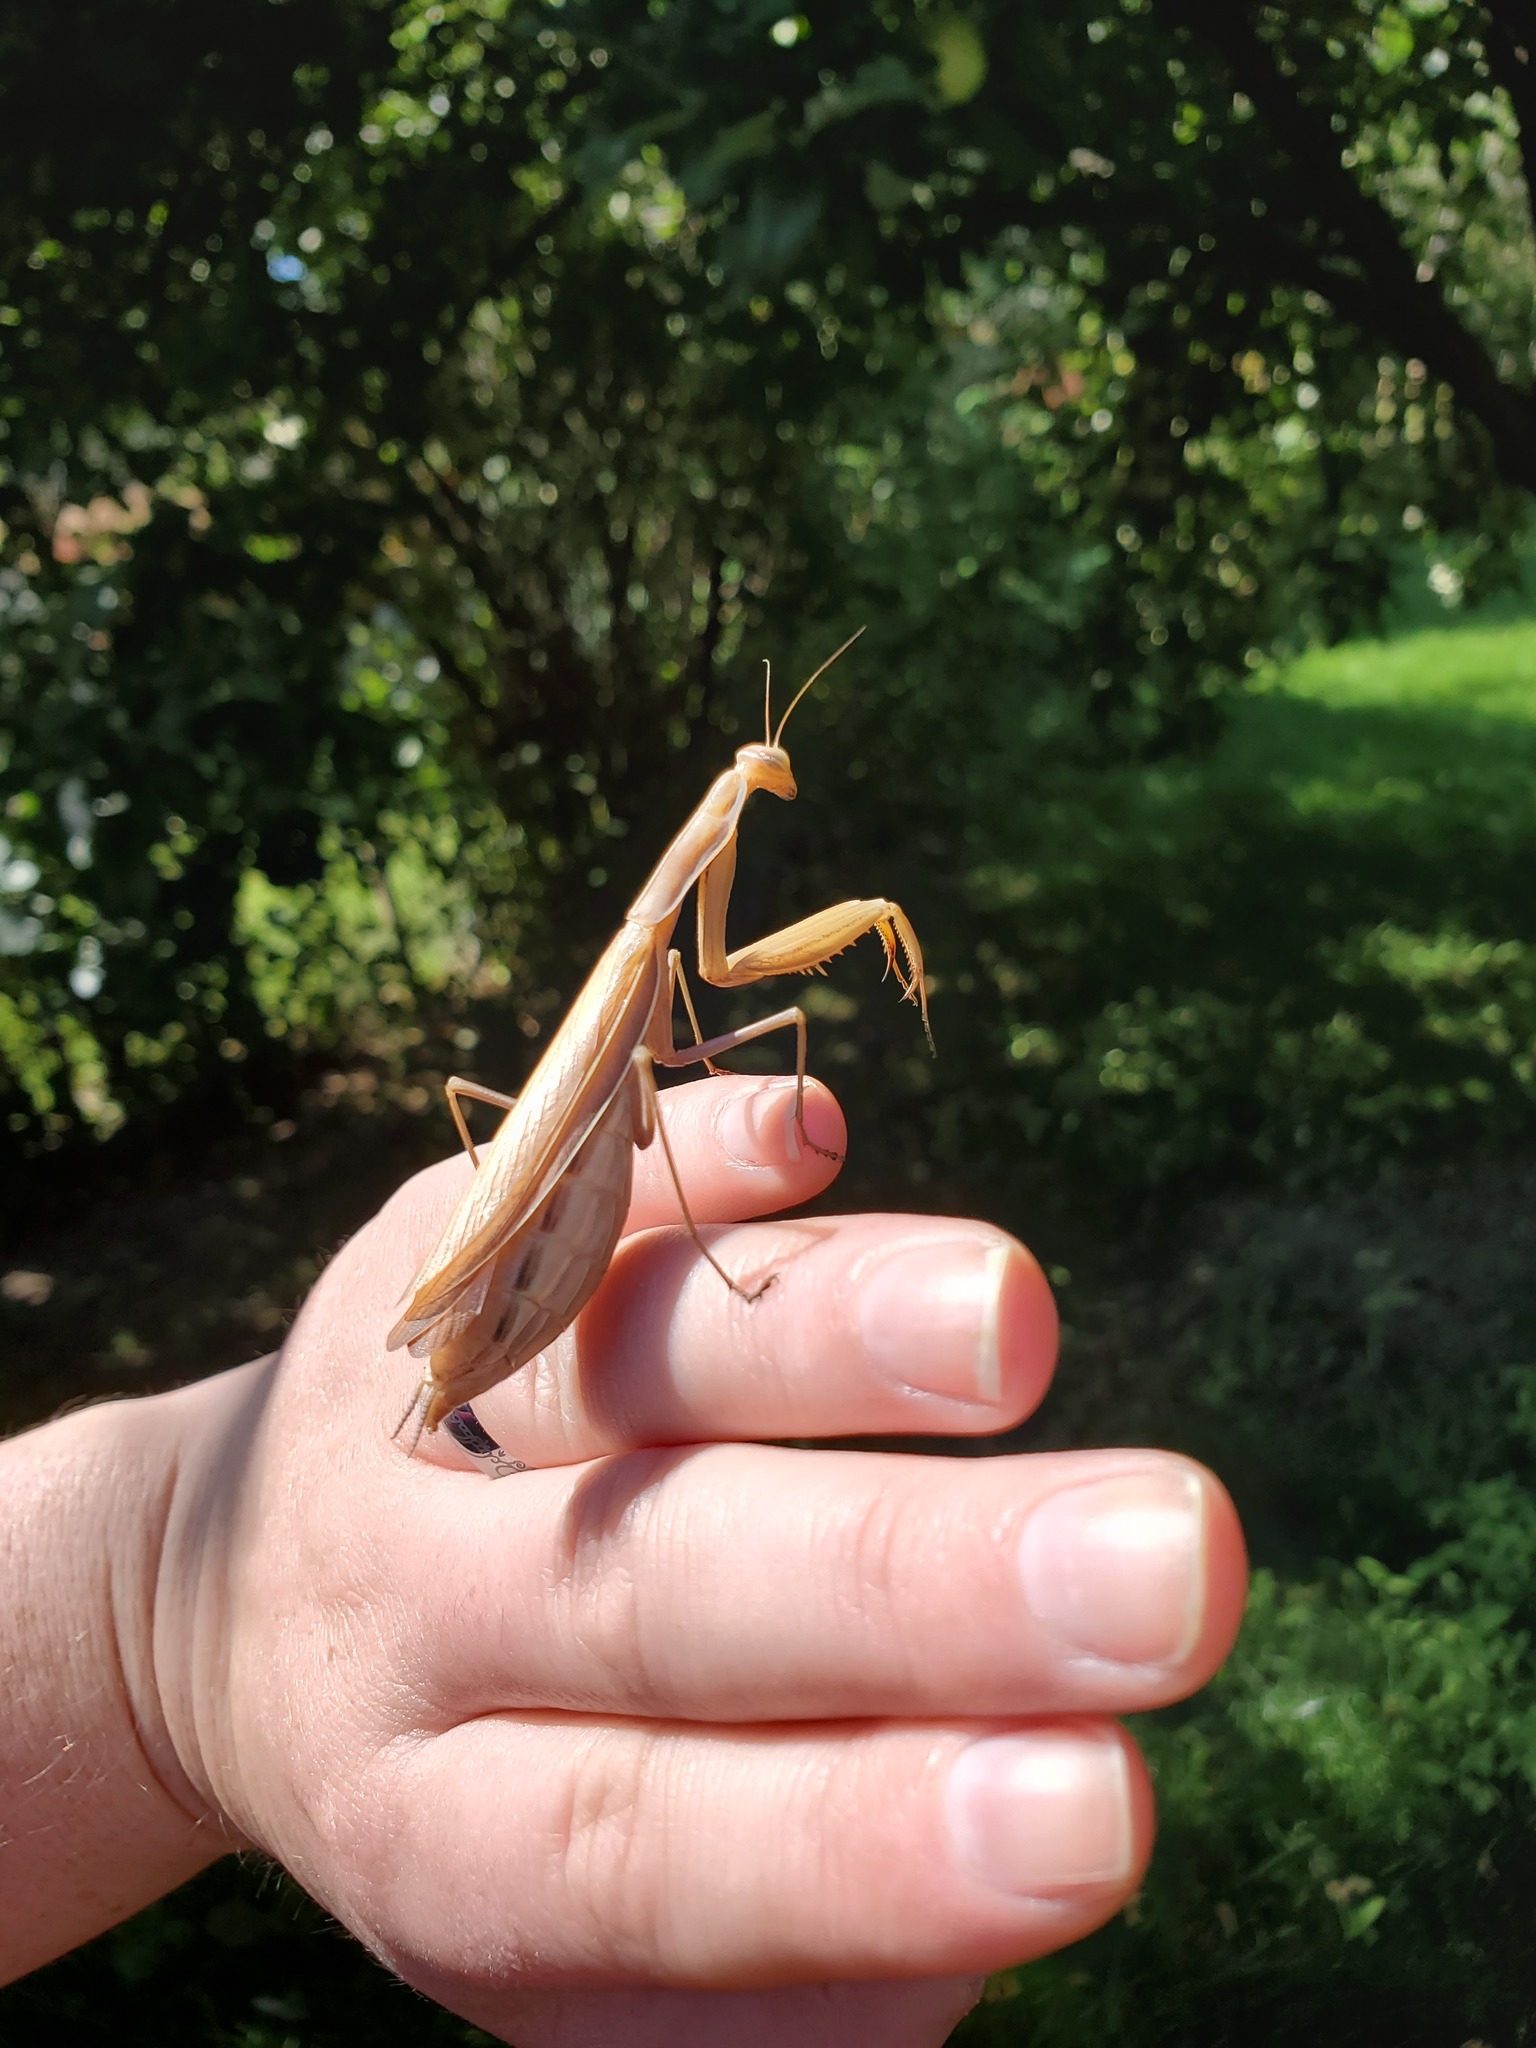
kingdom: Animalia
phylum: Arthropoda
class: Insecta
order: Mantodea
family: Mantidae
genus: Mantis
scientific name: Mantis religiosa
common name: Praying mantis
